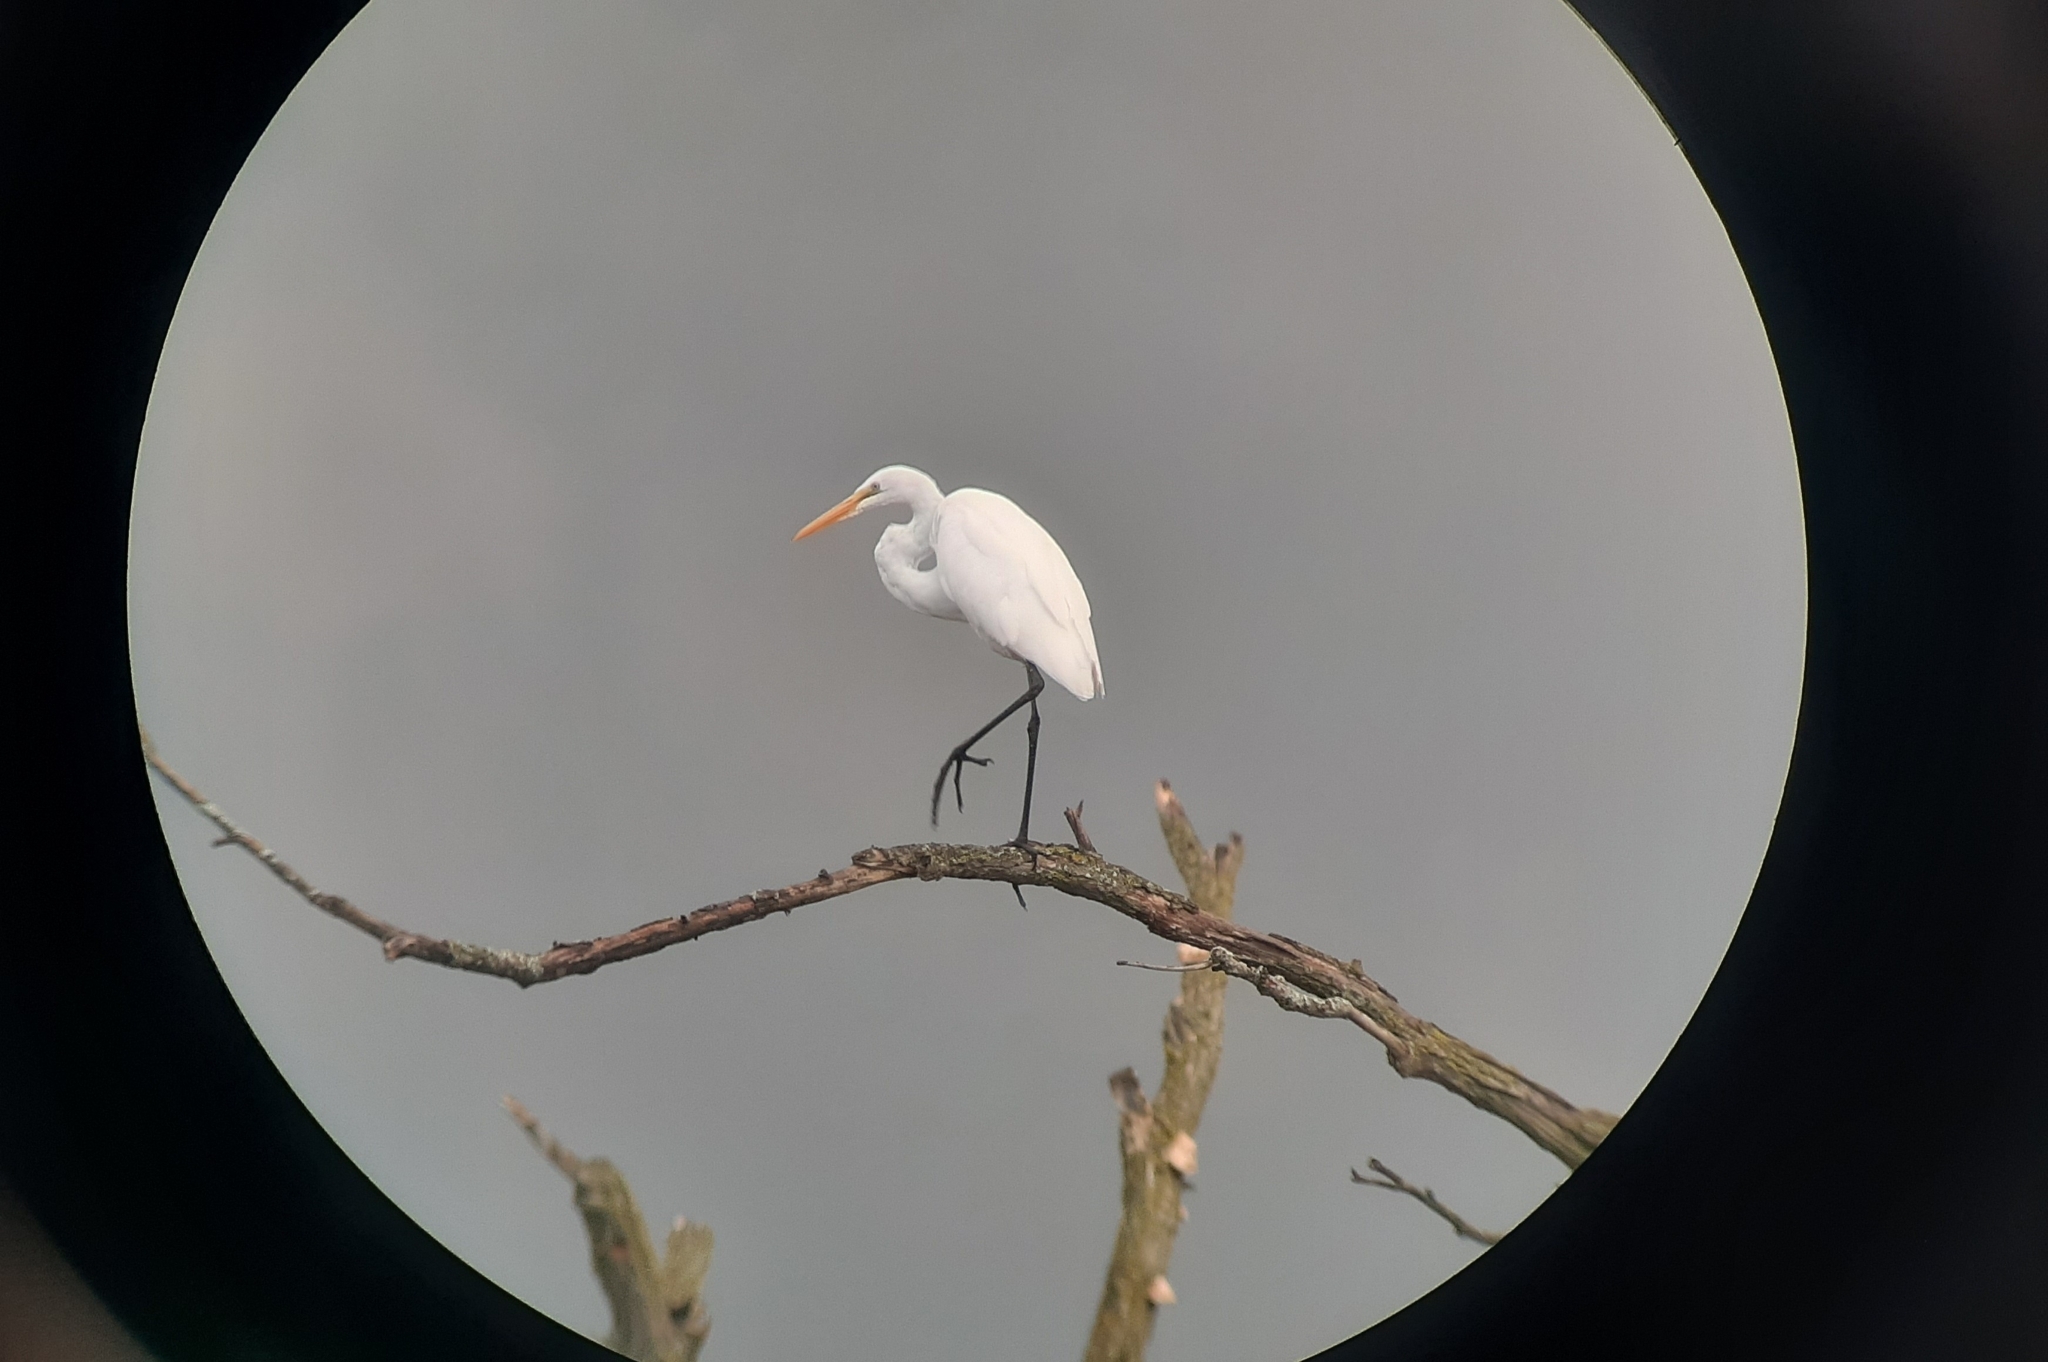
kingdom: Animalia
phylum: Chordata
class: Aves
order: Pelecaniformes
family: Ardeidae
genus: Ardea
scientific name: Ardea alba
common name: Great egret
